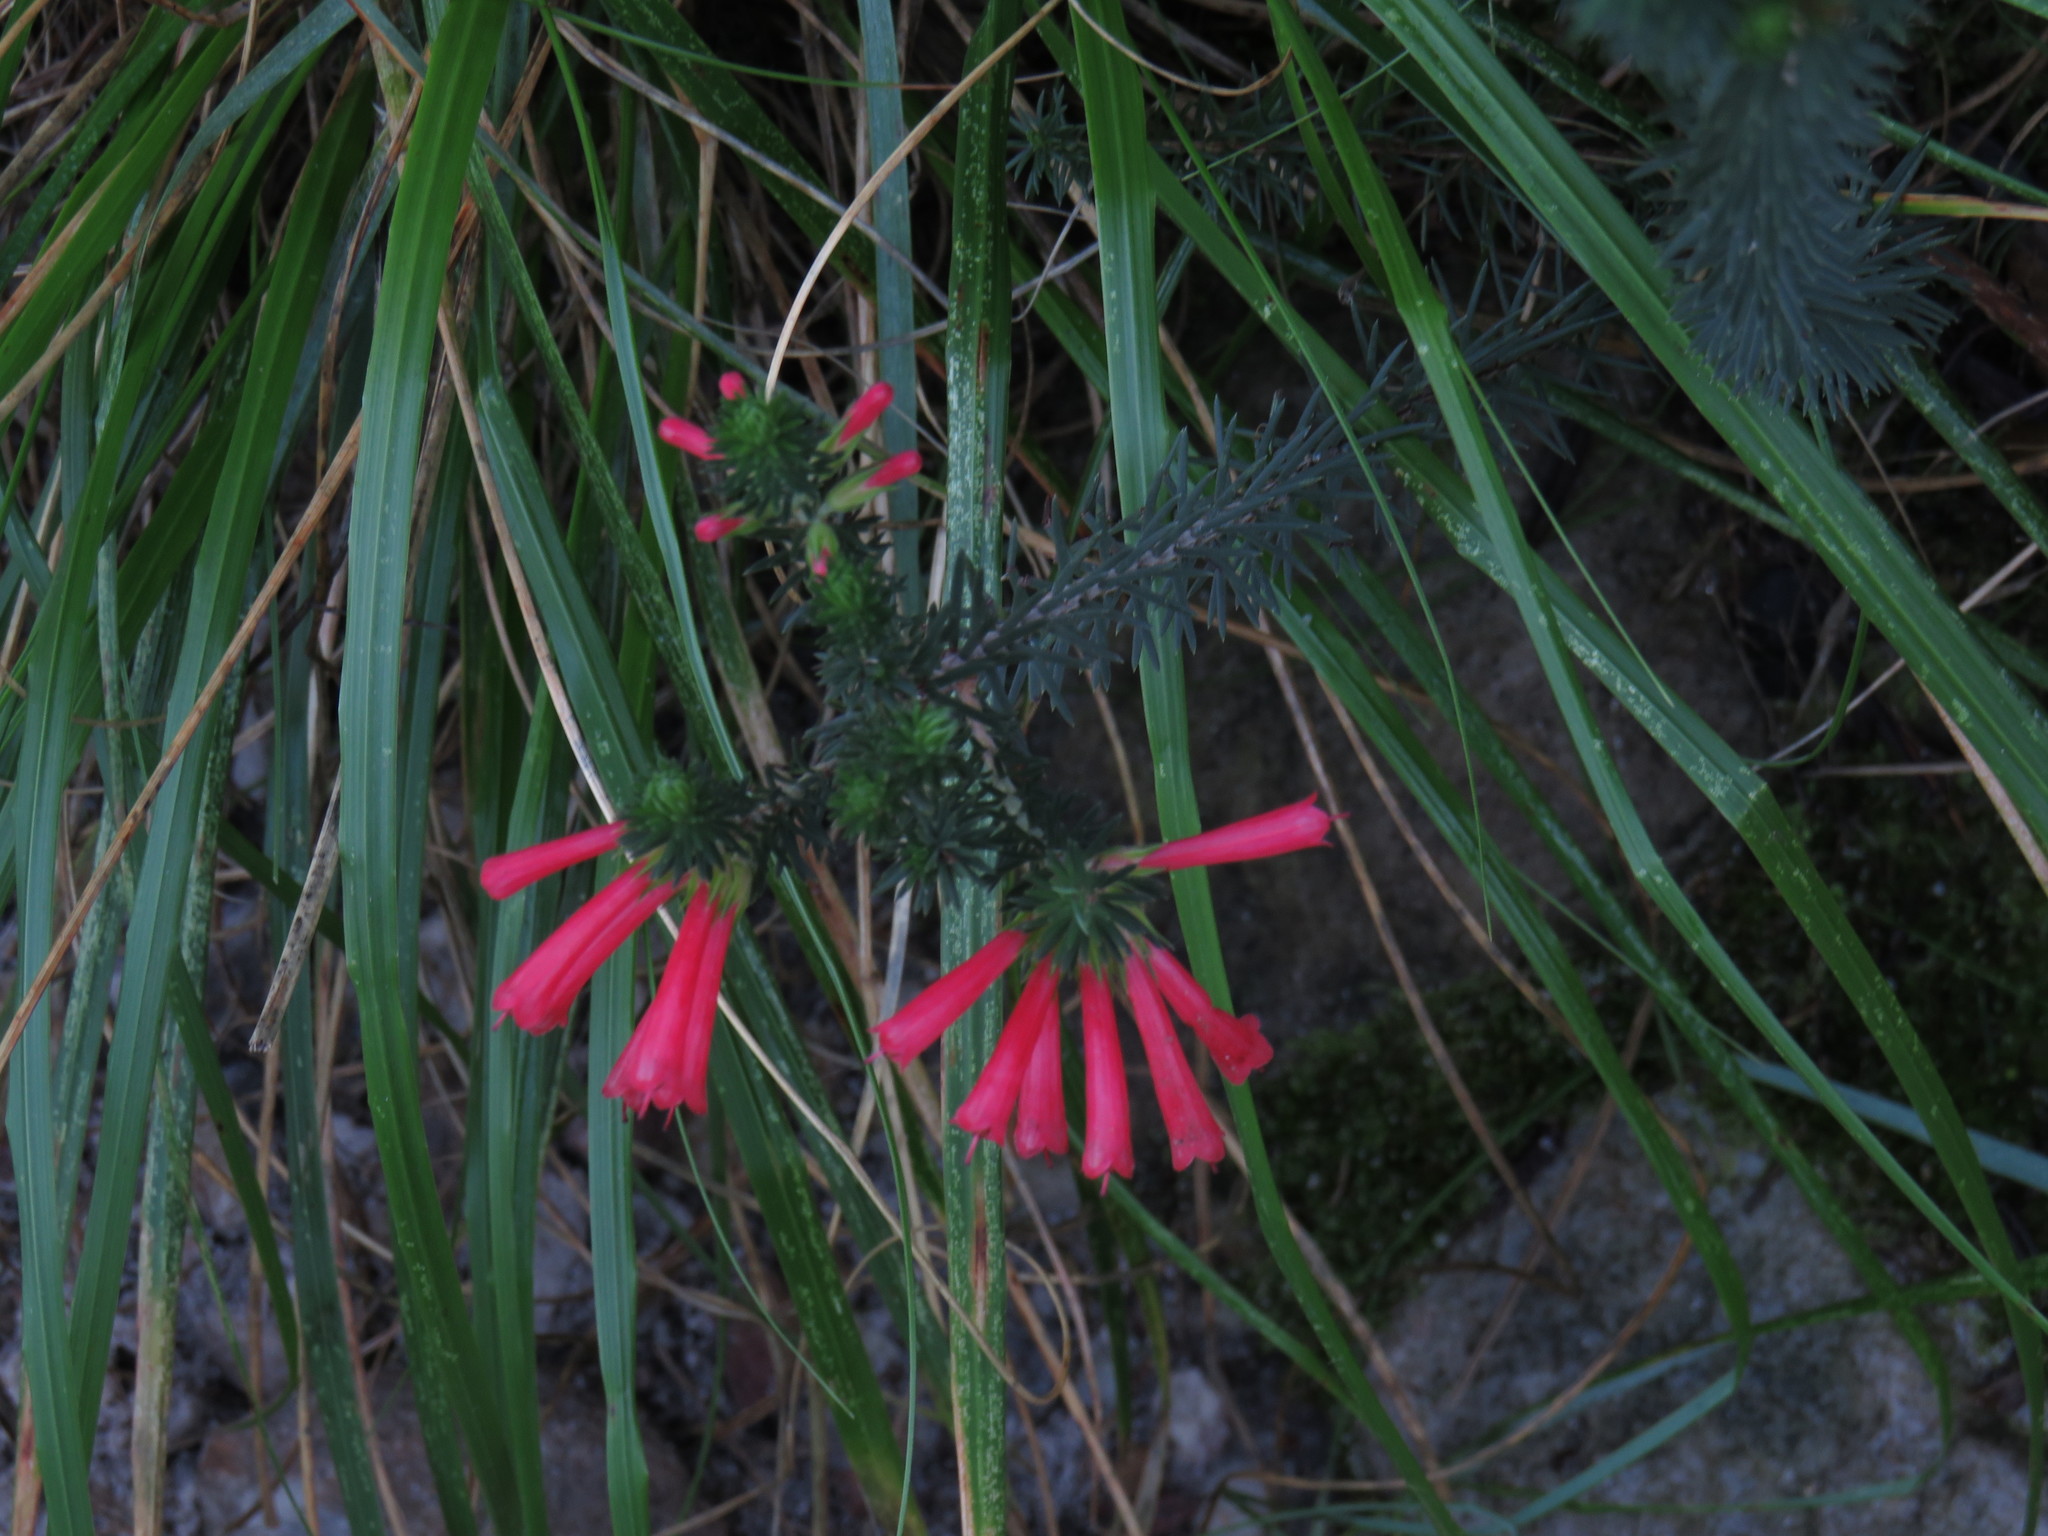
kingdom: Plantae
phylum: Tracheophyta
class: Magnoliopsida
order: Ericales
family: Ericaceae
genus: Erica
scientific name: Erica abietina
